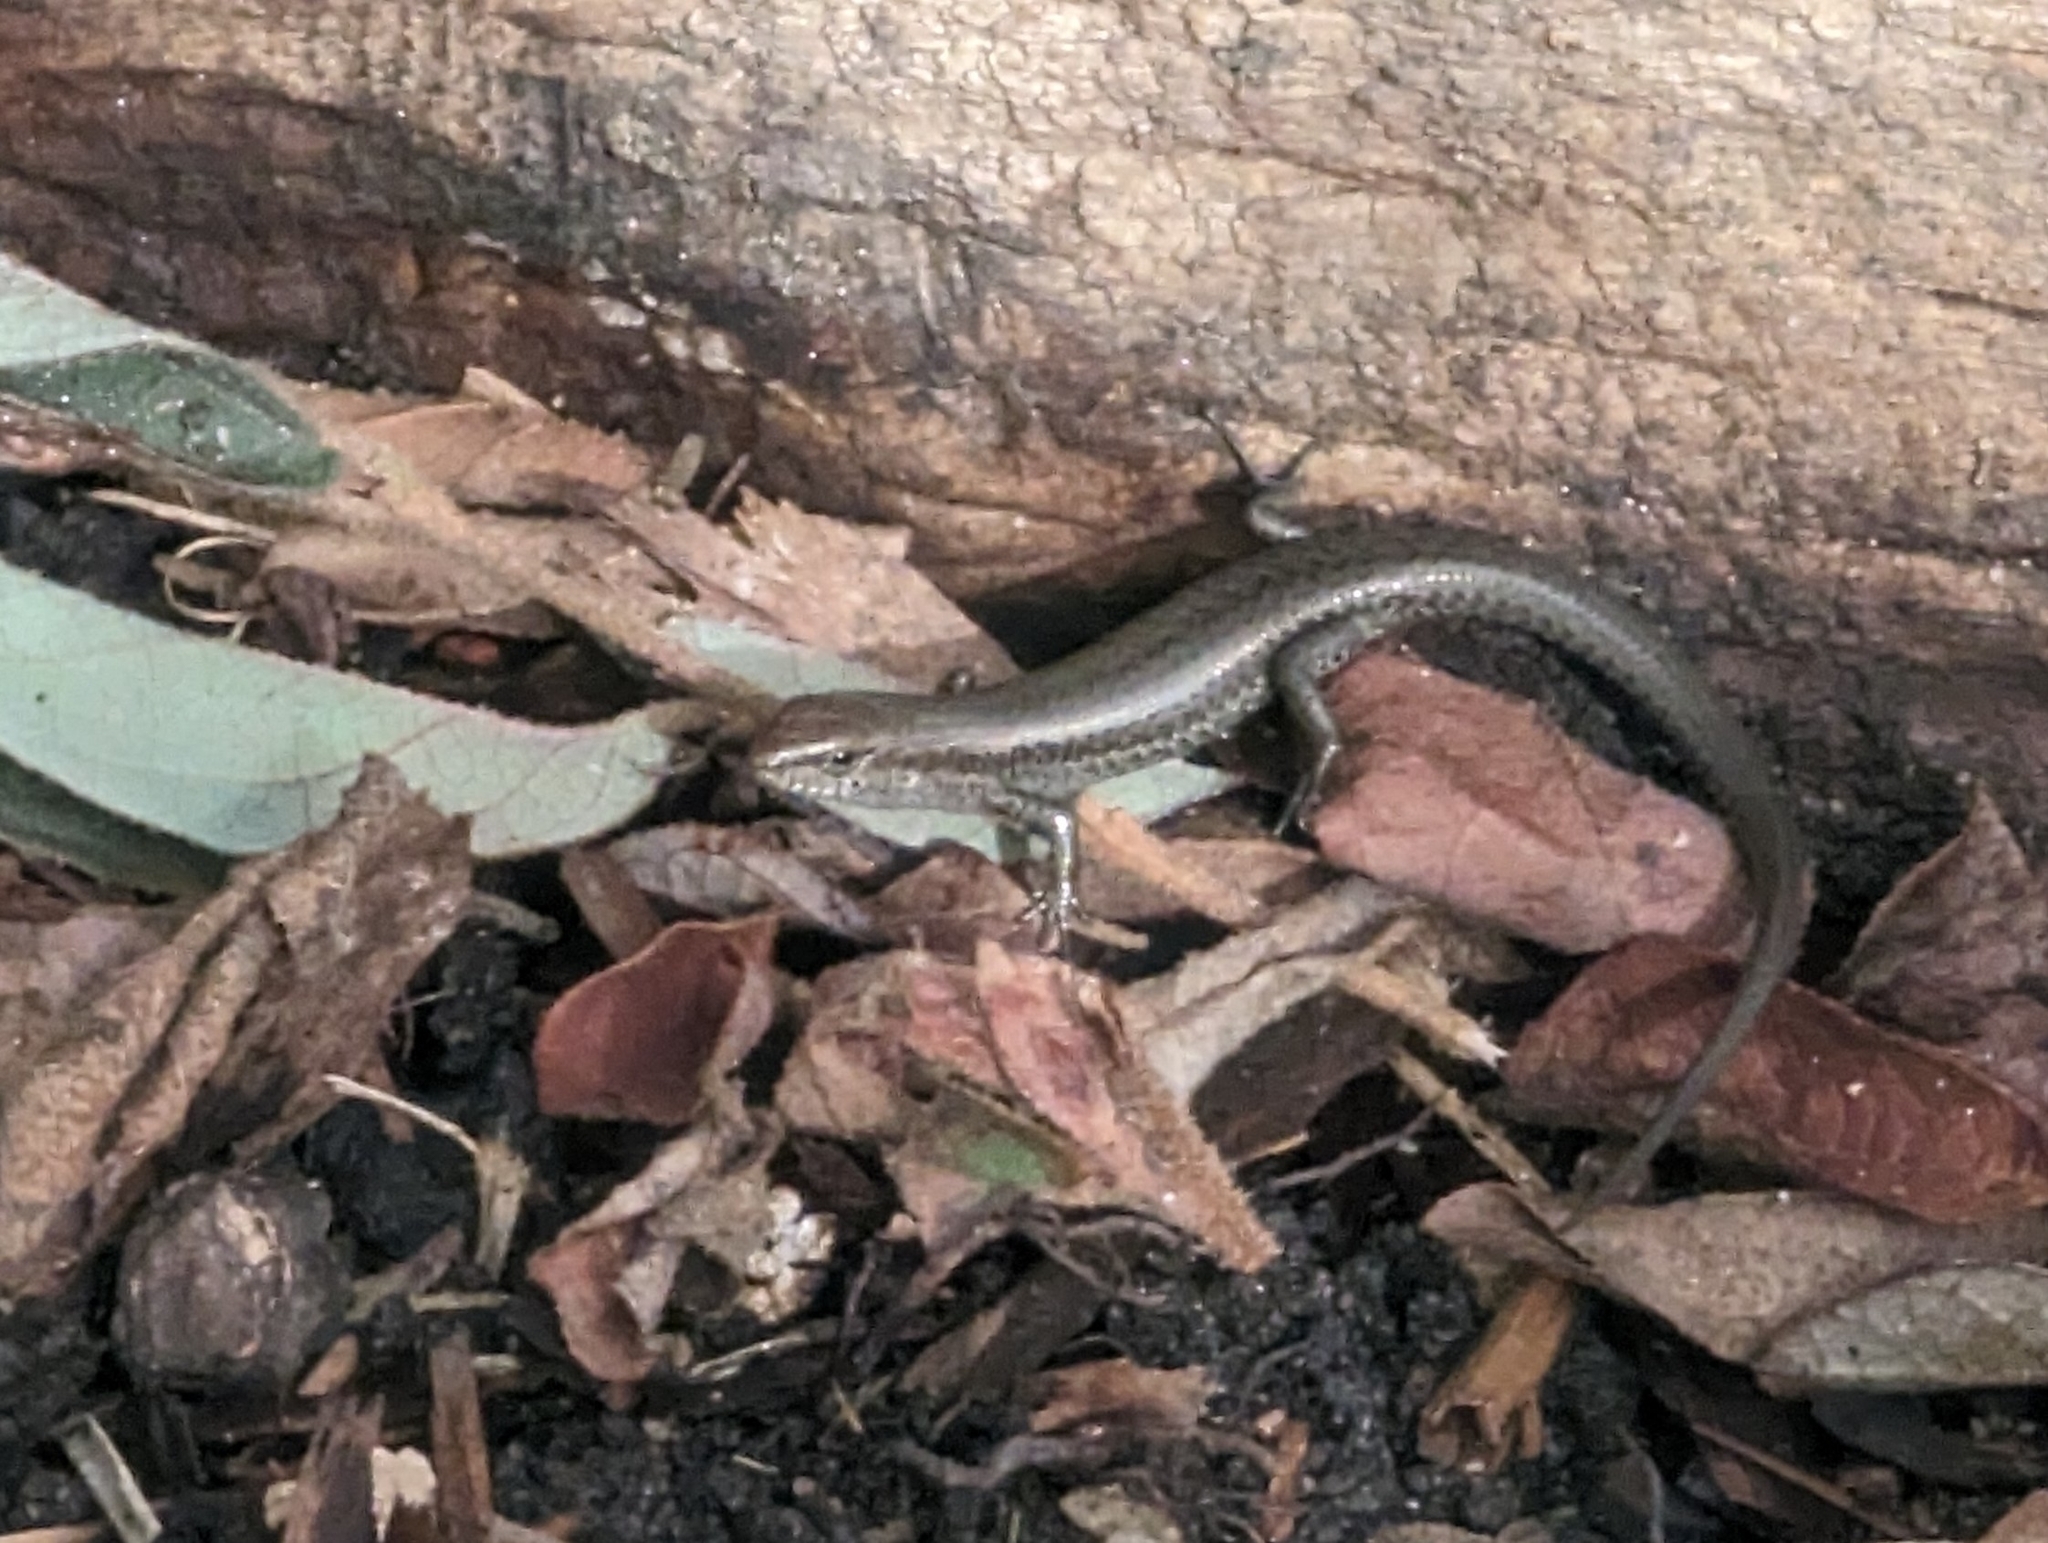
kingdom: Animalia
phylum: Chordata
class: Squamata
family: Scincidae
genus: Lampropholis
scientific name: Lampropholis guichenoti
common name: Garden skink
